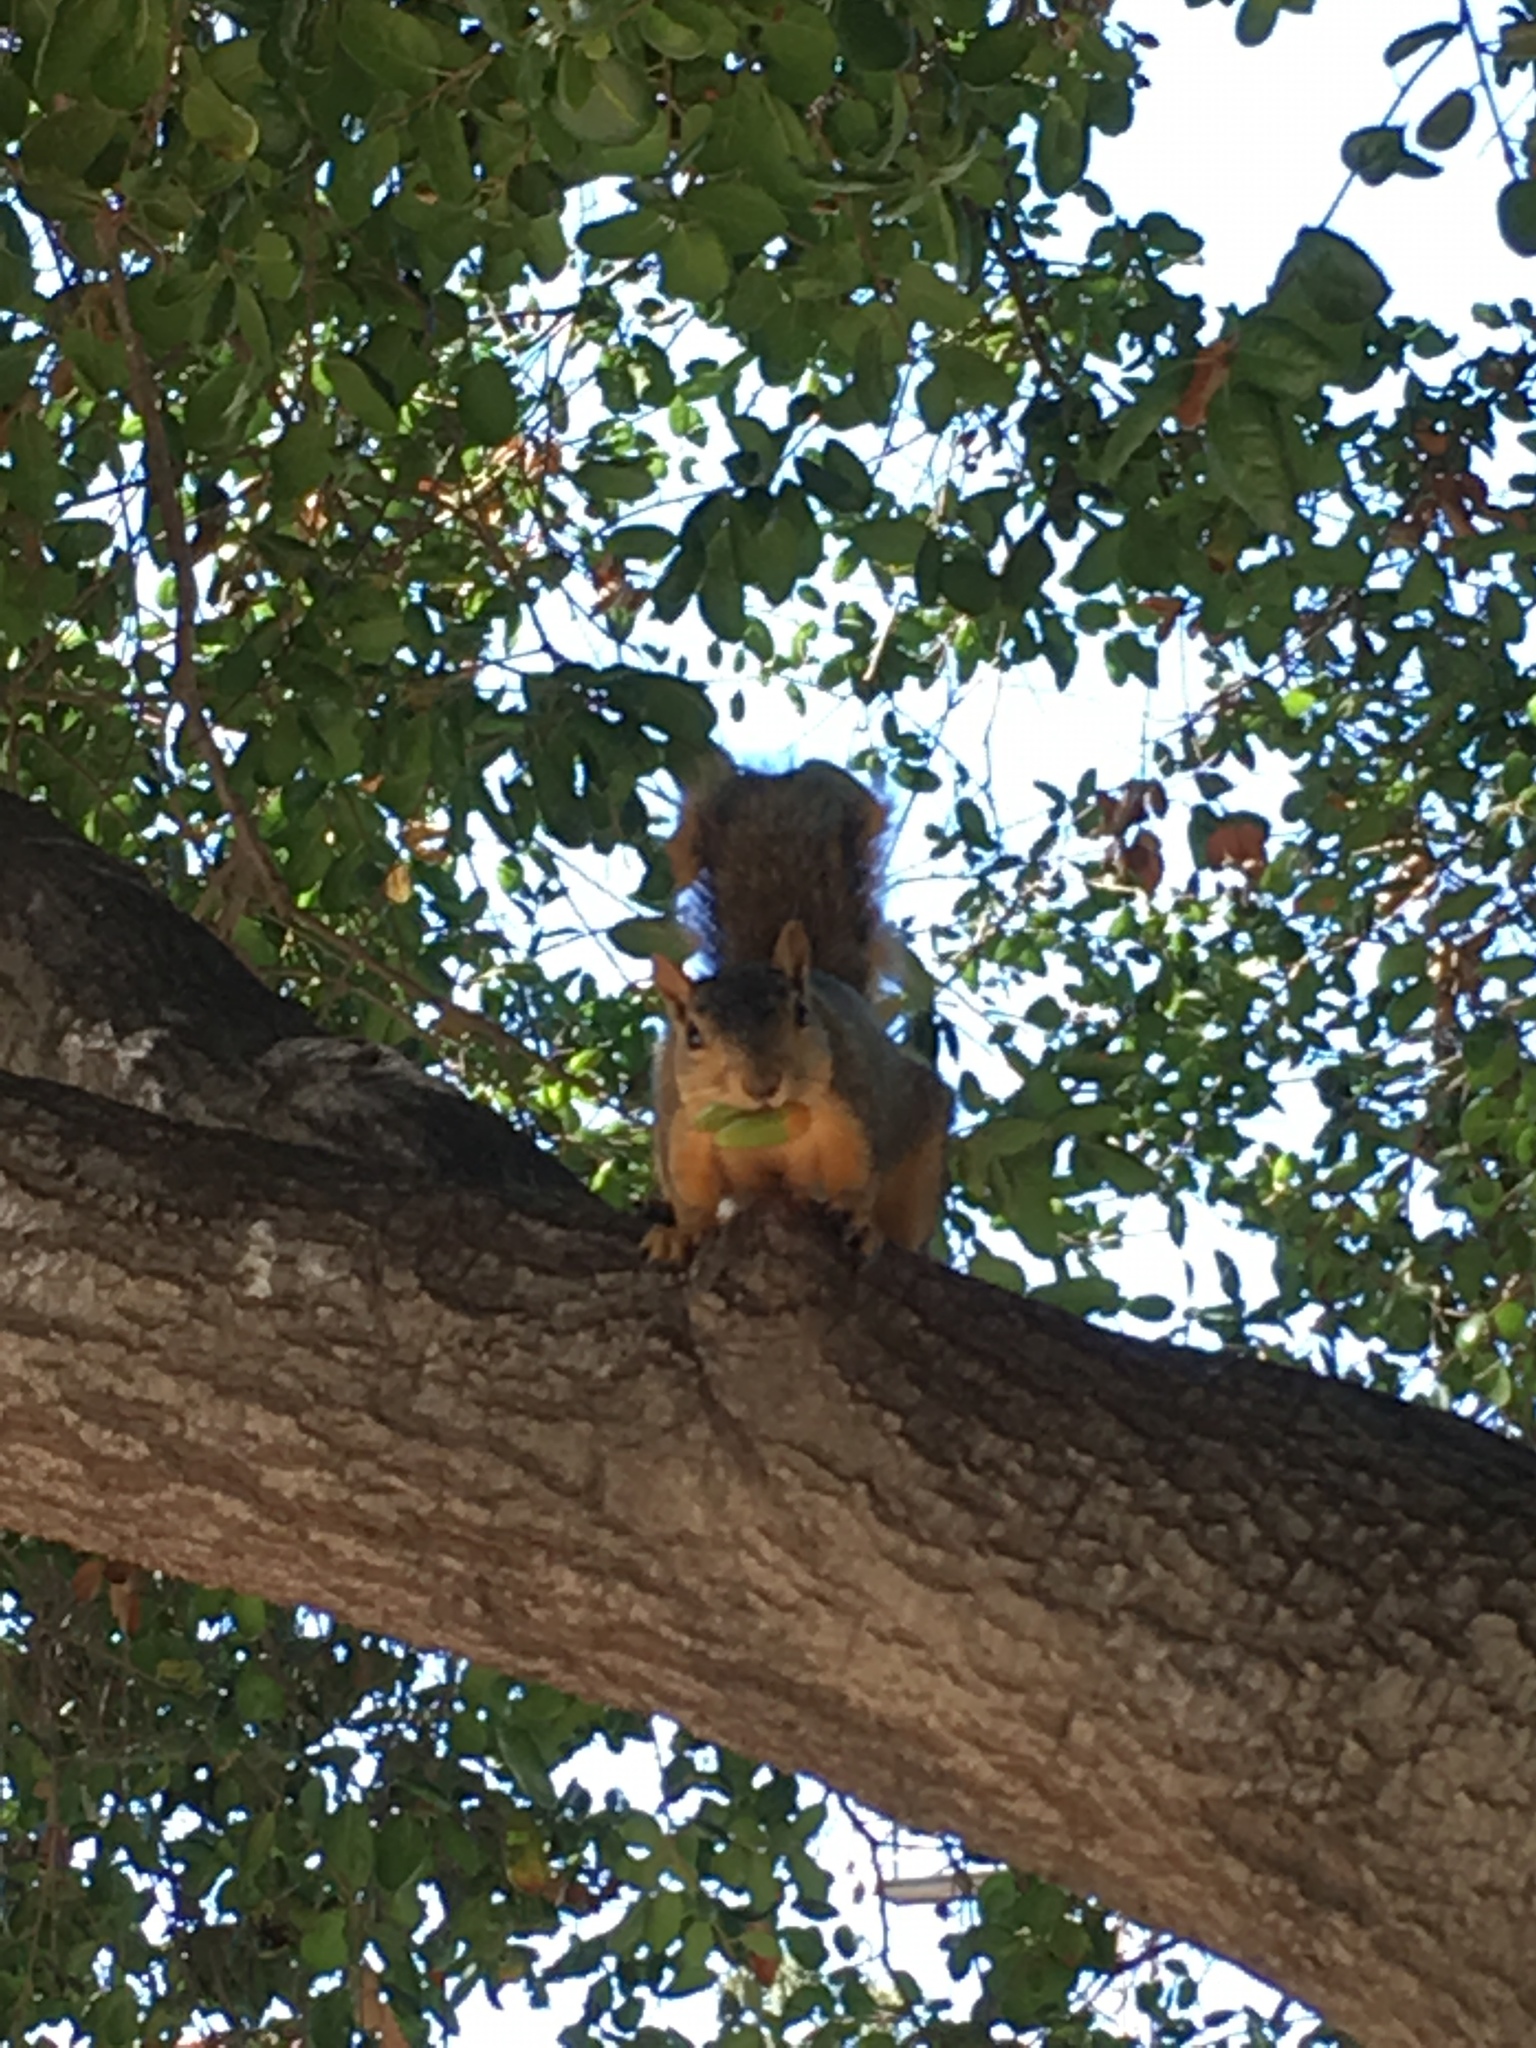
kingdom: Animalia
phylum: Chordata
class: Mammalia
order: Rodentia
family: Sciuridae
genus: Sciurus
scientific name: Sciurus niger
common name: Fox squirrel
